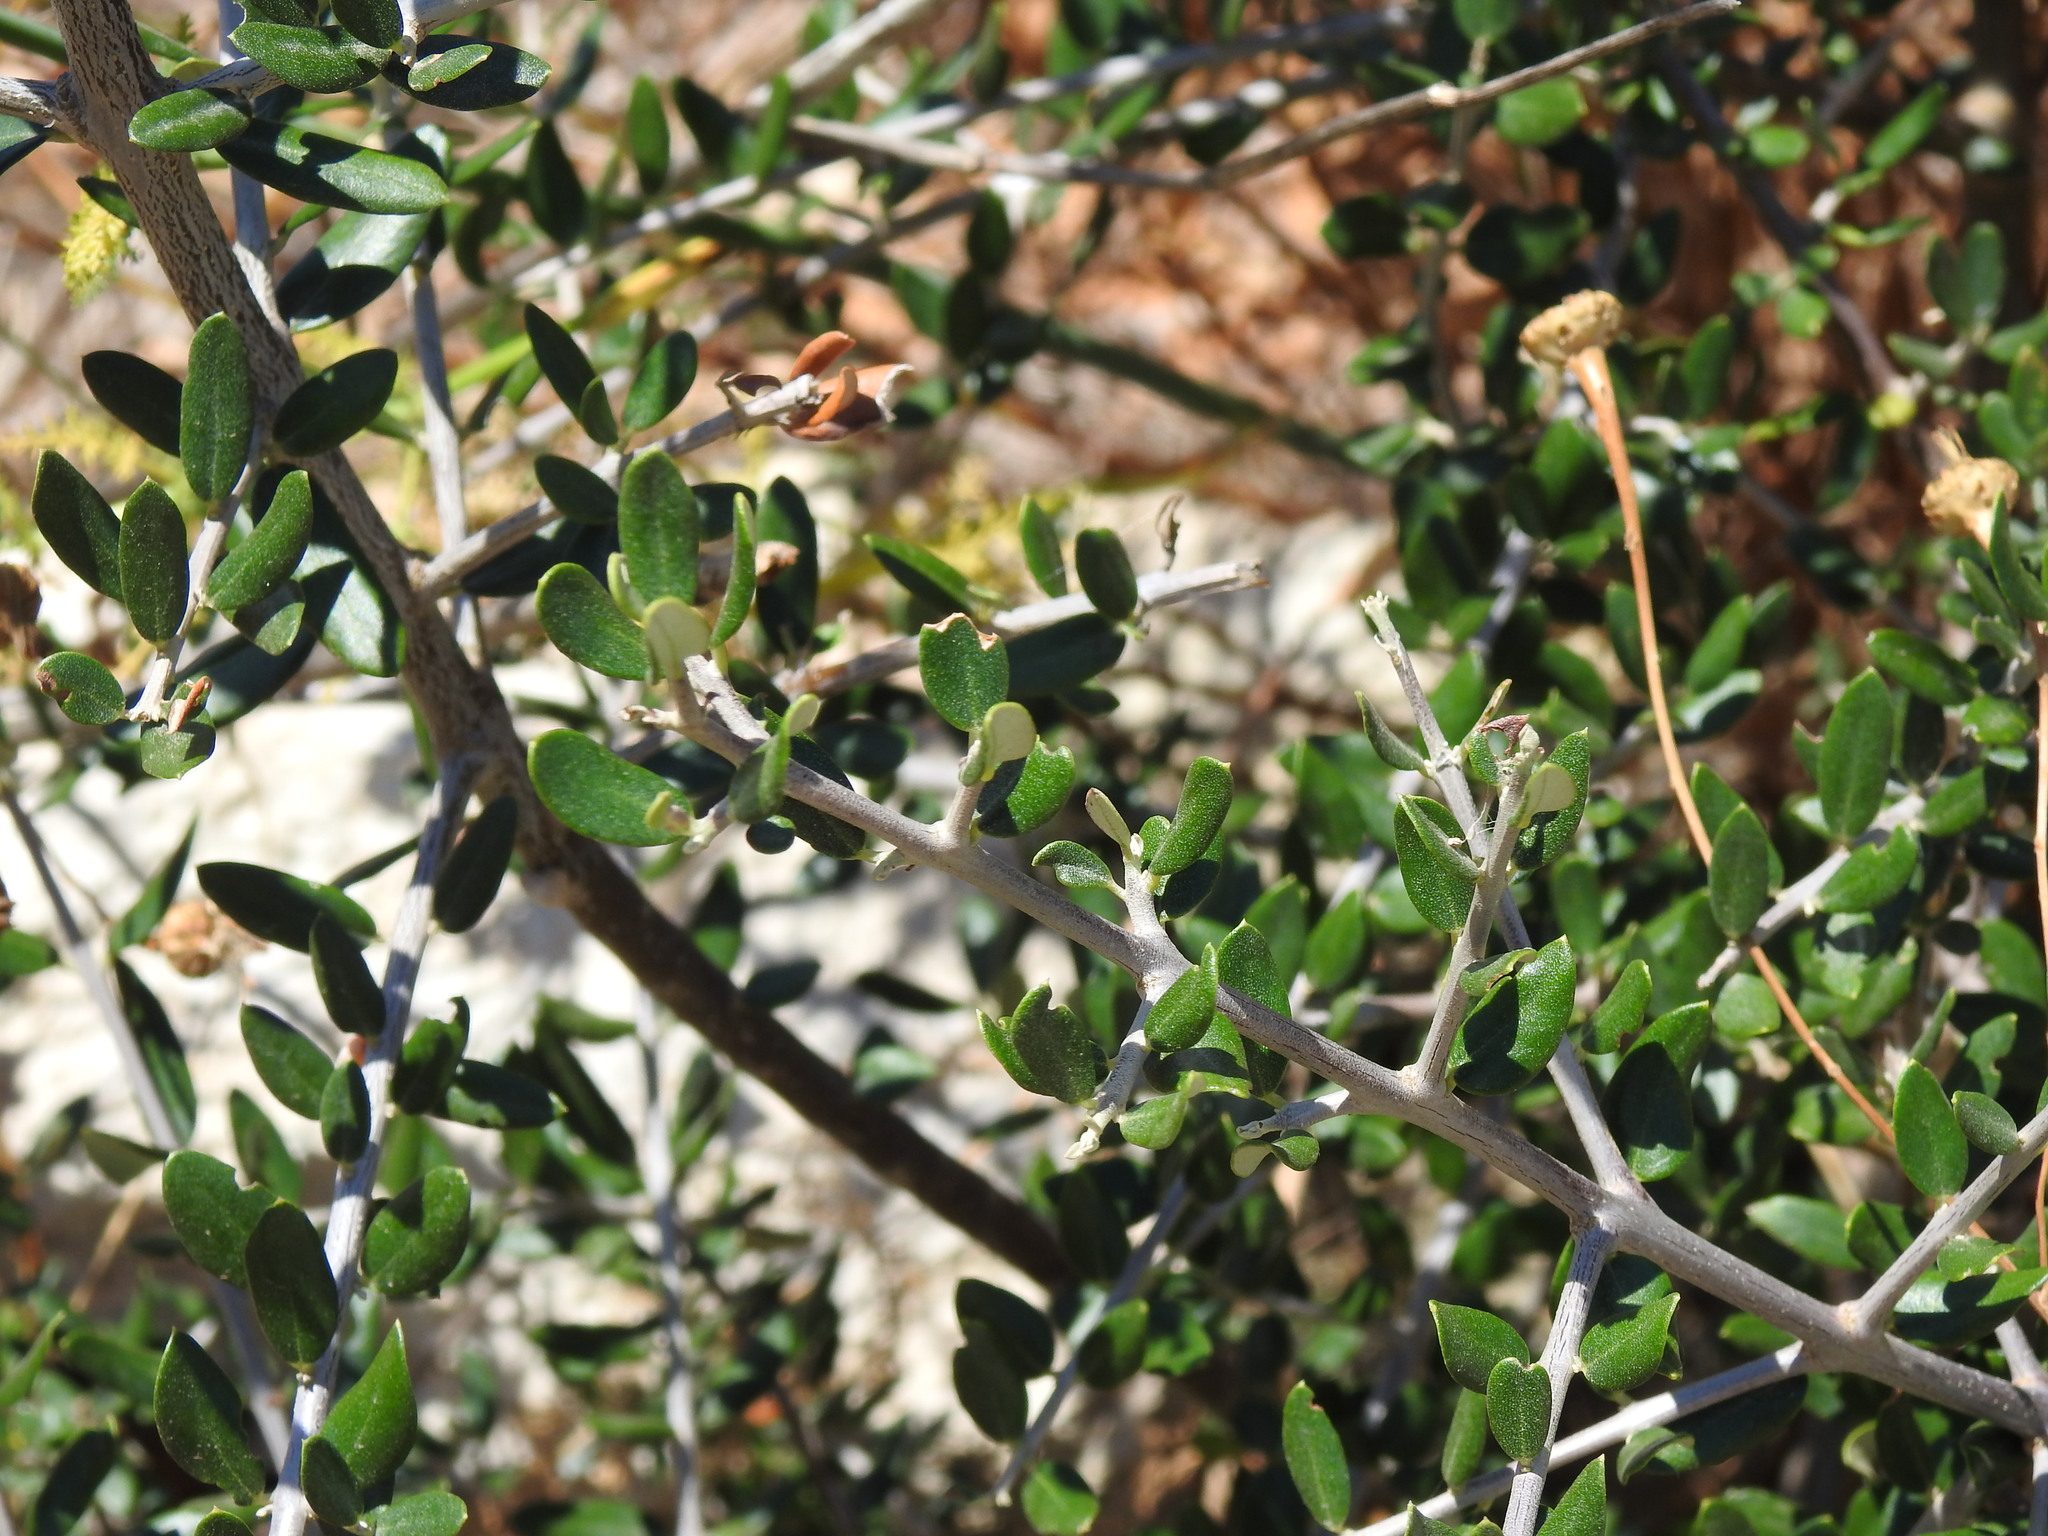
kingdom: Plantae
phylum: Tracheophyta
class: Magnoliopsida
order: Lamiales
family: Oleaceae
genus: Olea
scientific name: Olea europaea
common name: Olive
